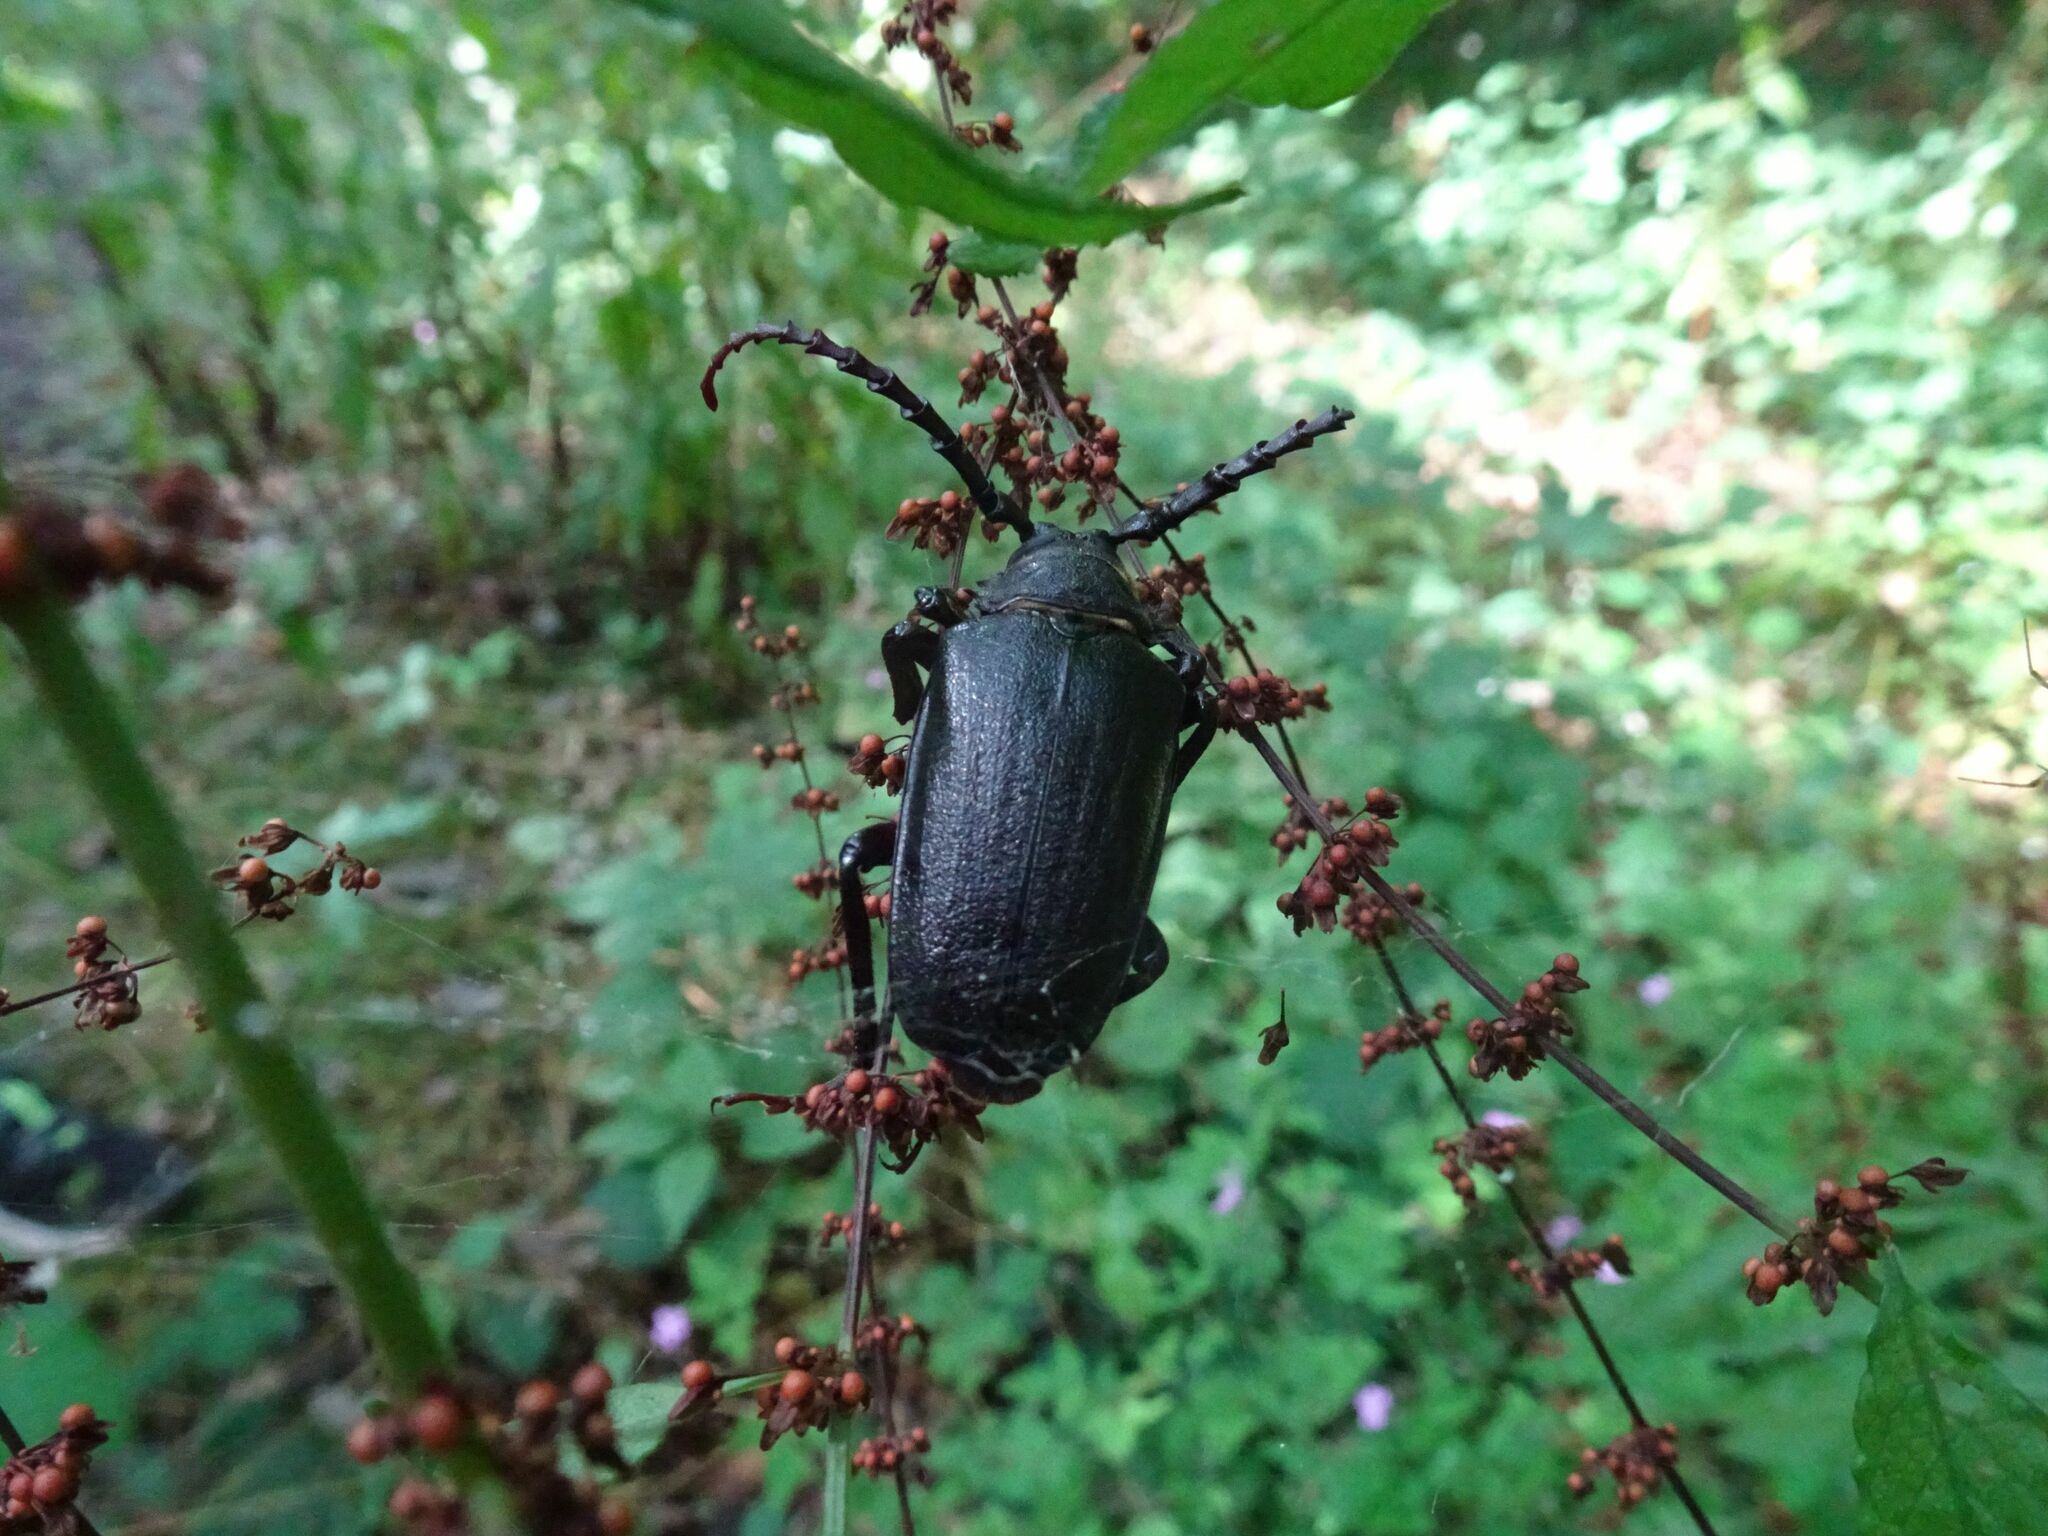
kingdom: Animalia
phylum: Arthropoda
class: Insecta
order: Coleoptera
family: Cerambycidae
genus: Prionus
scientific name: Prionus coriarius
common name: Tanner beetle
